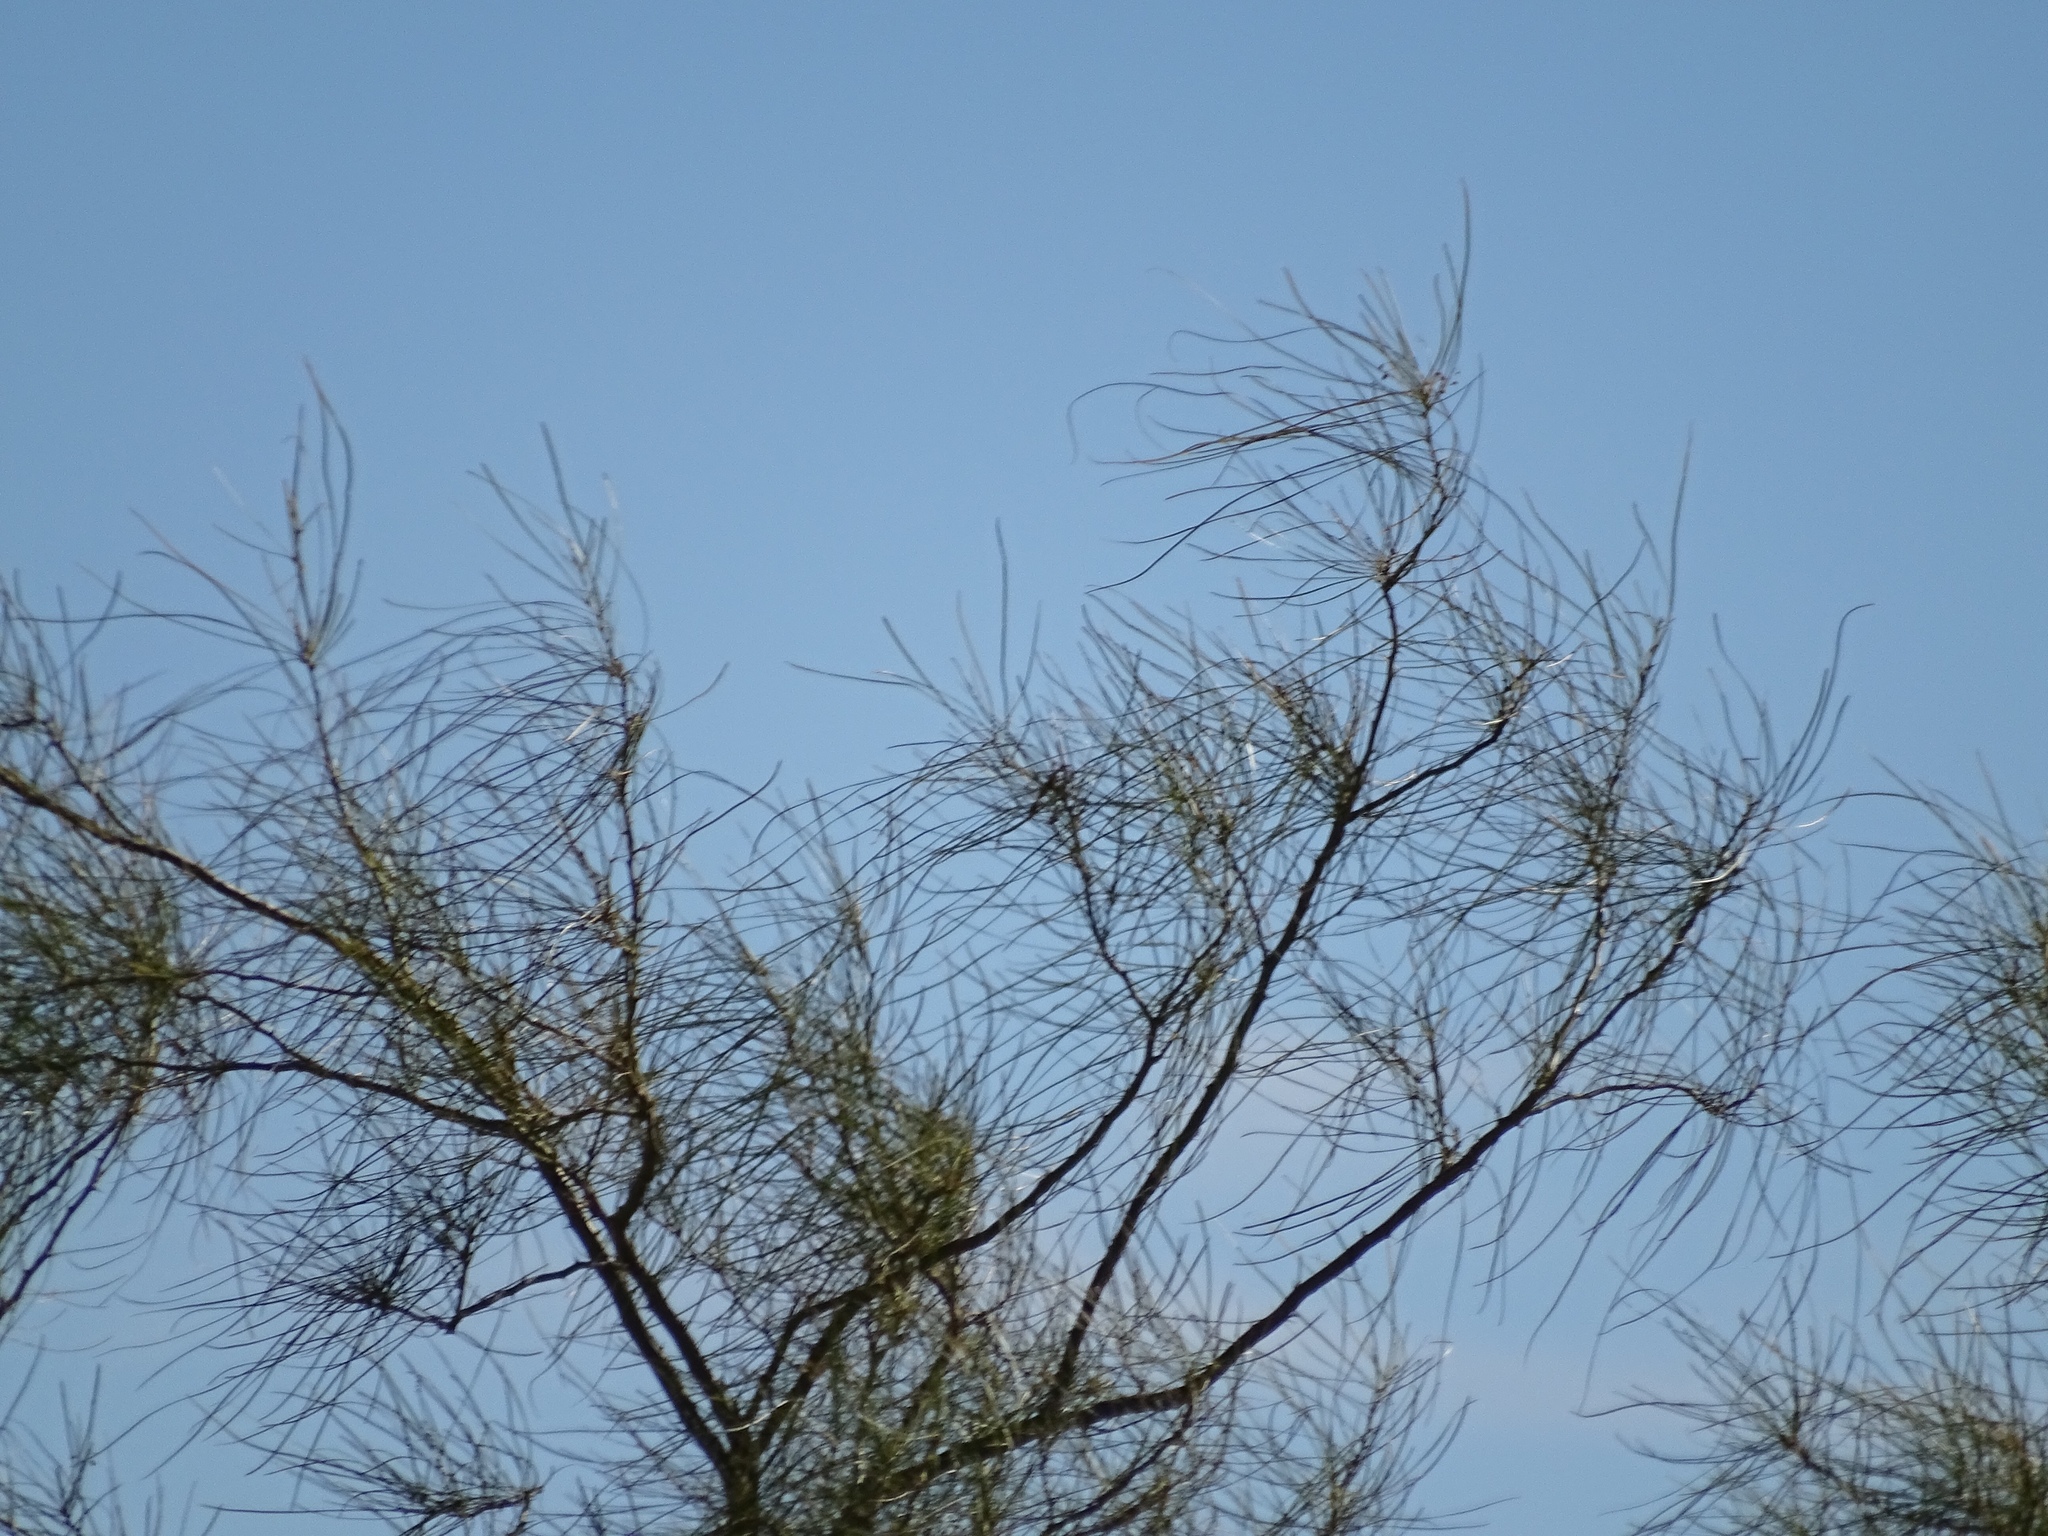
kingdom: Plantae
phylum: Tracheophyta
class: Magnoliopsida
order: Fabales
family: Fabaceae
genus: Parkinsonia
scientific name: Parkinsonia aculeata
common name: Jerusalem thorn
